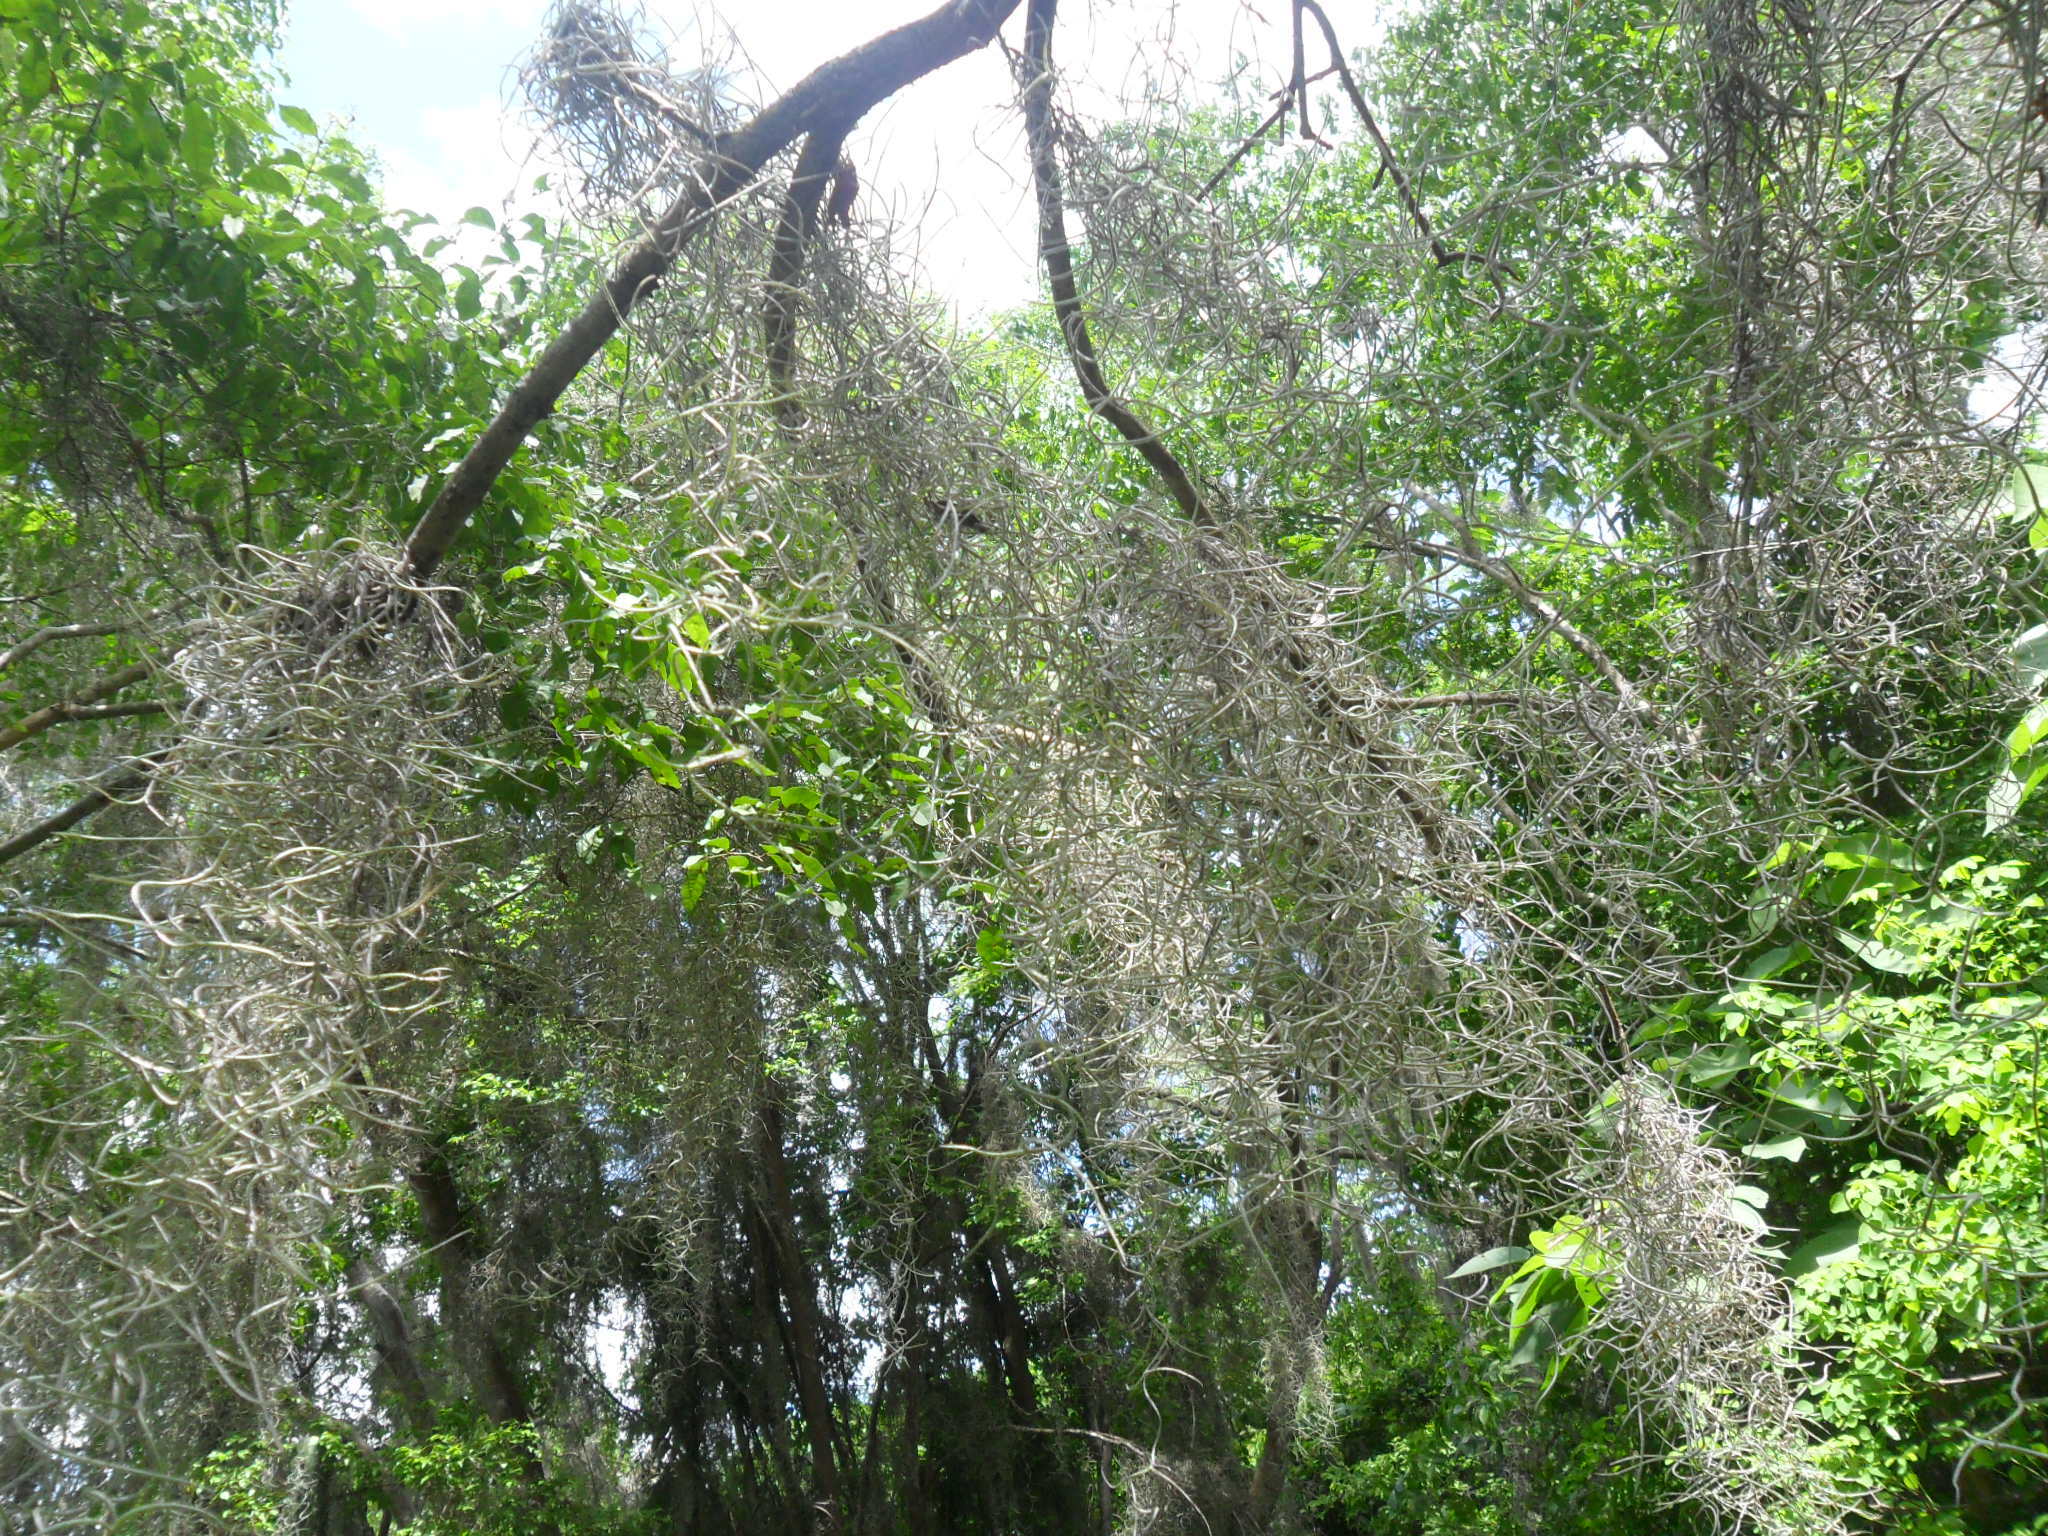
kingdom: Plantae
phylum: Tracheophyta
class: Liliopsida
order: Poales
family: Bromeliaceae
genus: Tillandsia
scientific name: Tillandsia usneoides
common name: Spanish moss
